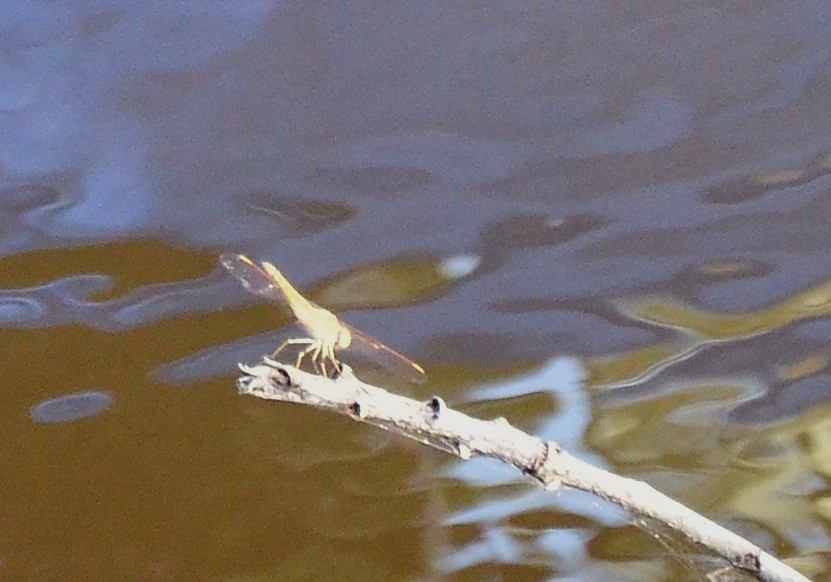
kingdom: Animalia
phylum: Arthropoda
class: Insecta
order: Odonata
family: Libellulidae
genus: Brachythemis
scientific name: Brachythemis contaminata
